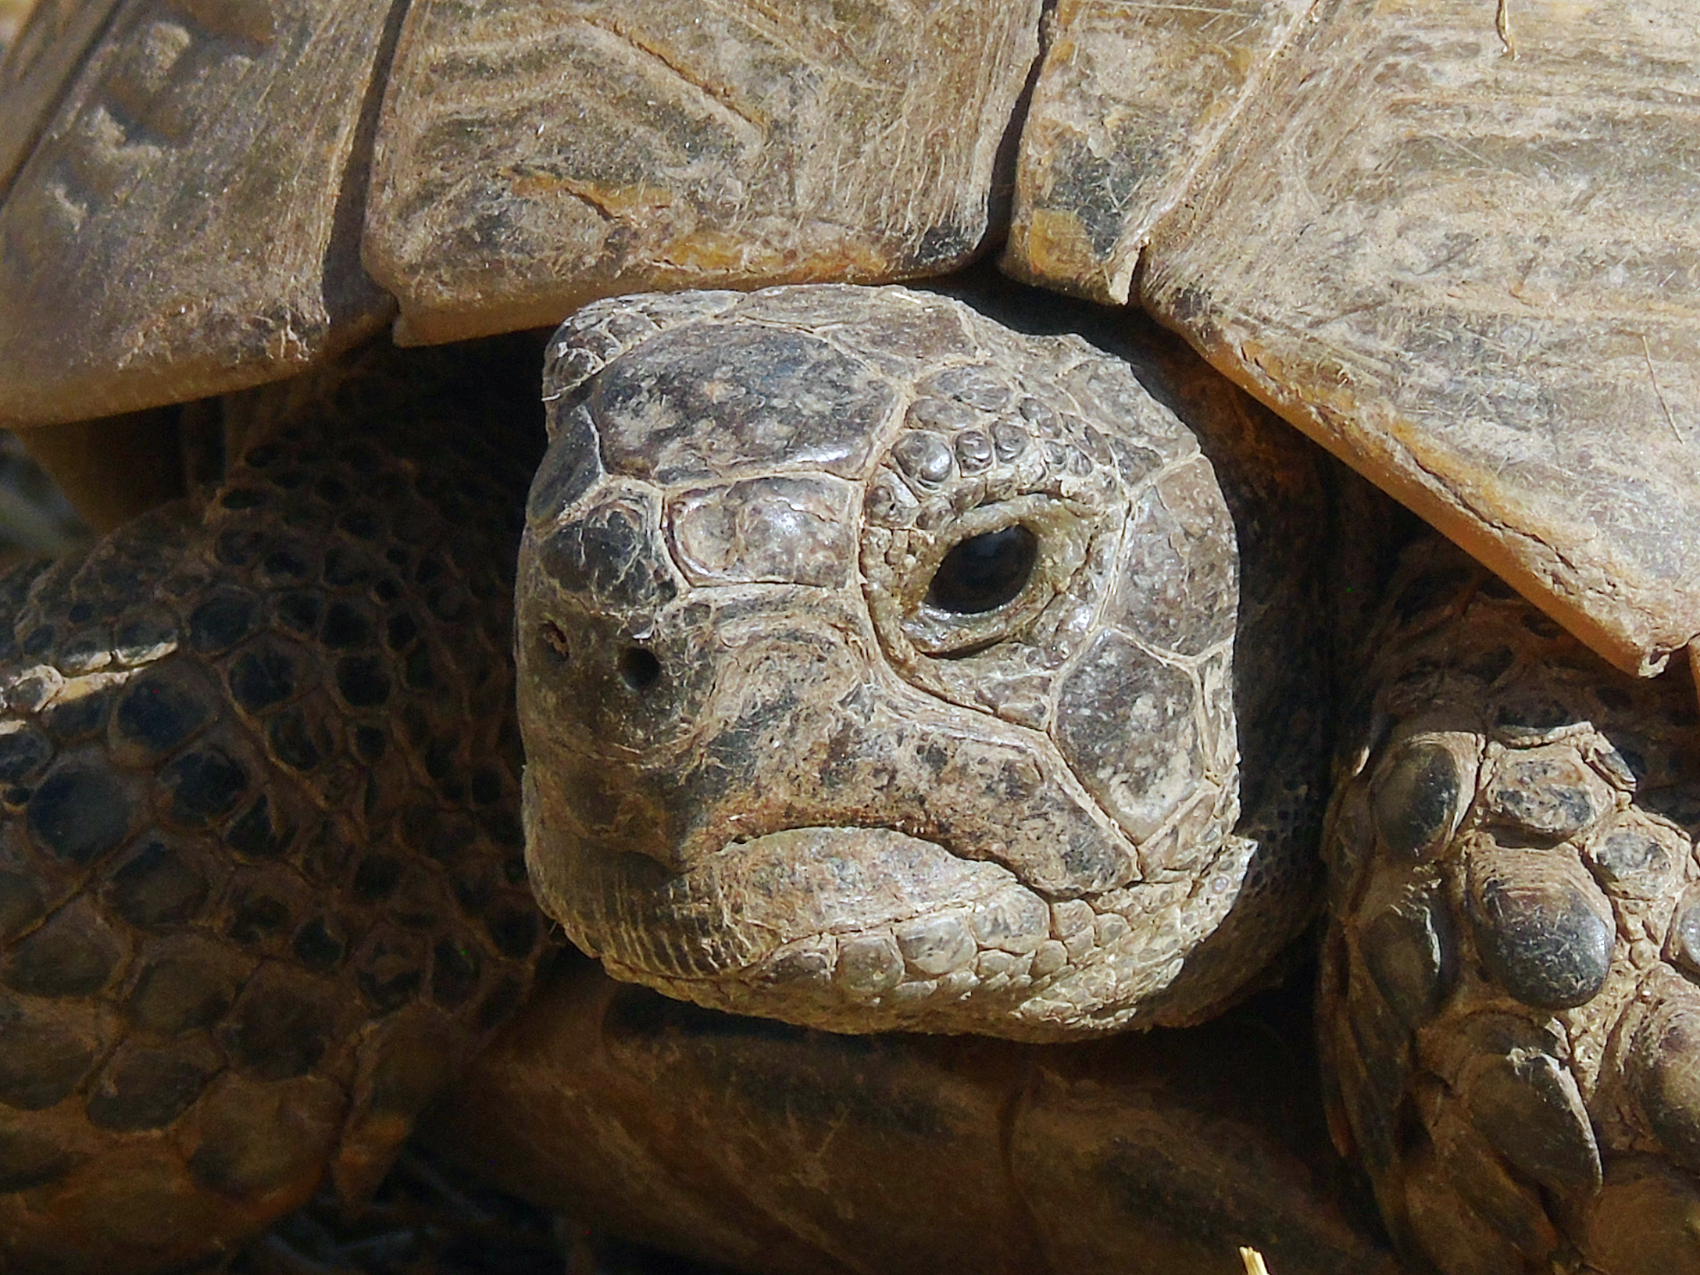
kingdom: Animalia
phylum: Chordata
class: Testudines
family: Testudinidae
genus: Testudo
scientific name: Testudo graeca
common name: Common tortoise
